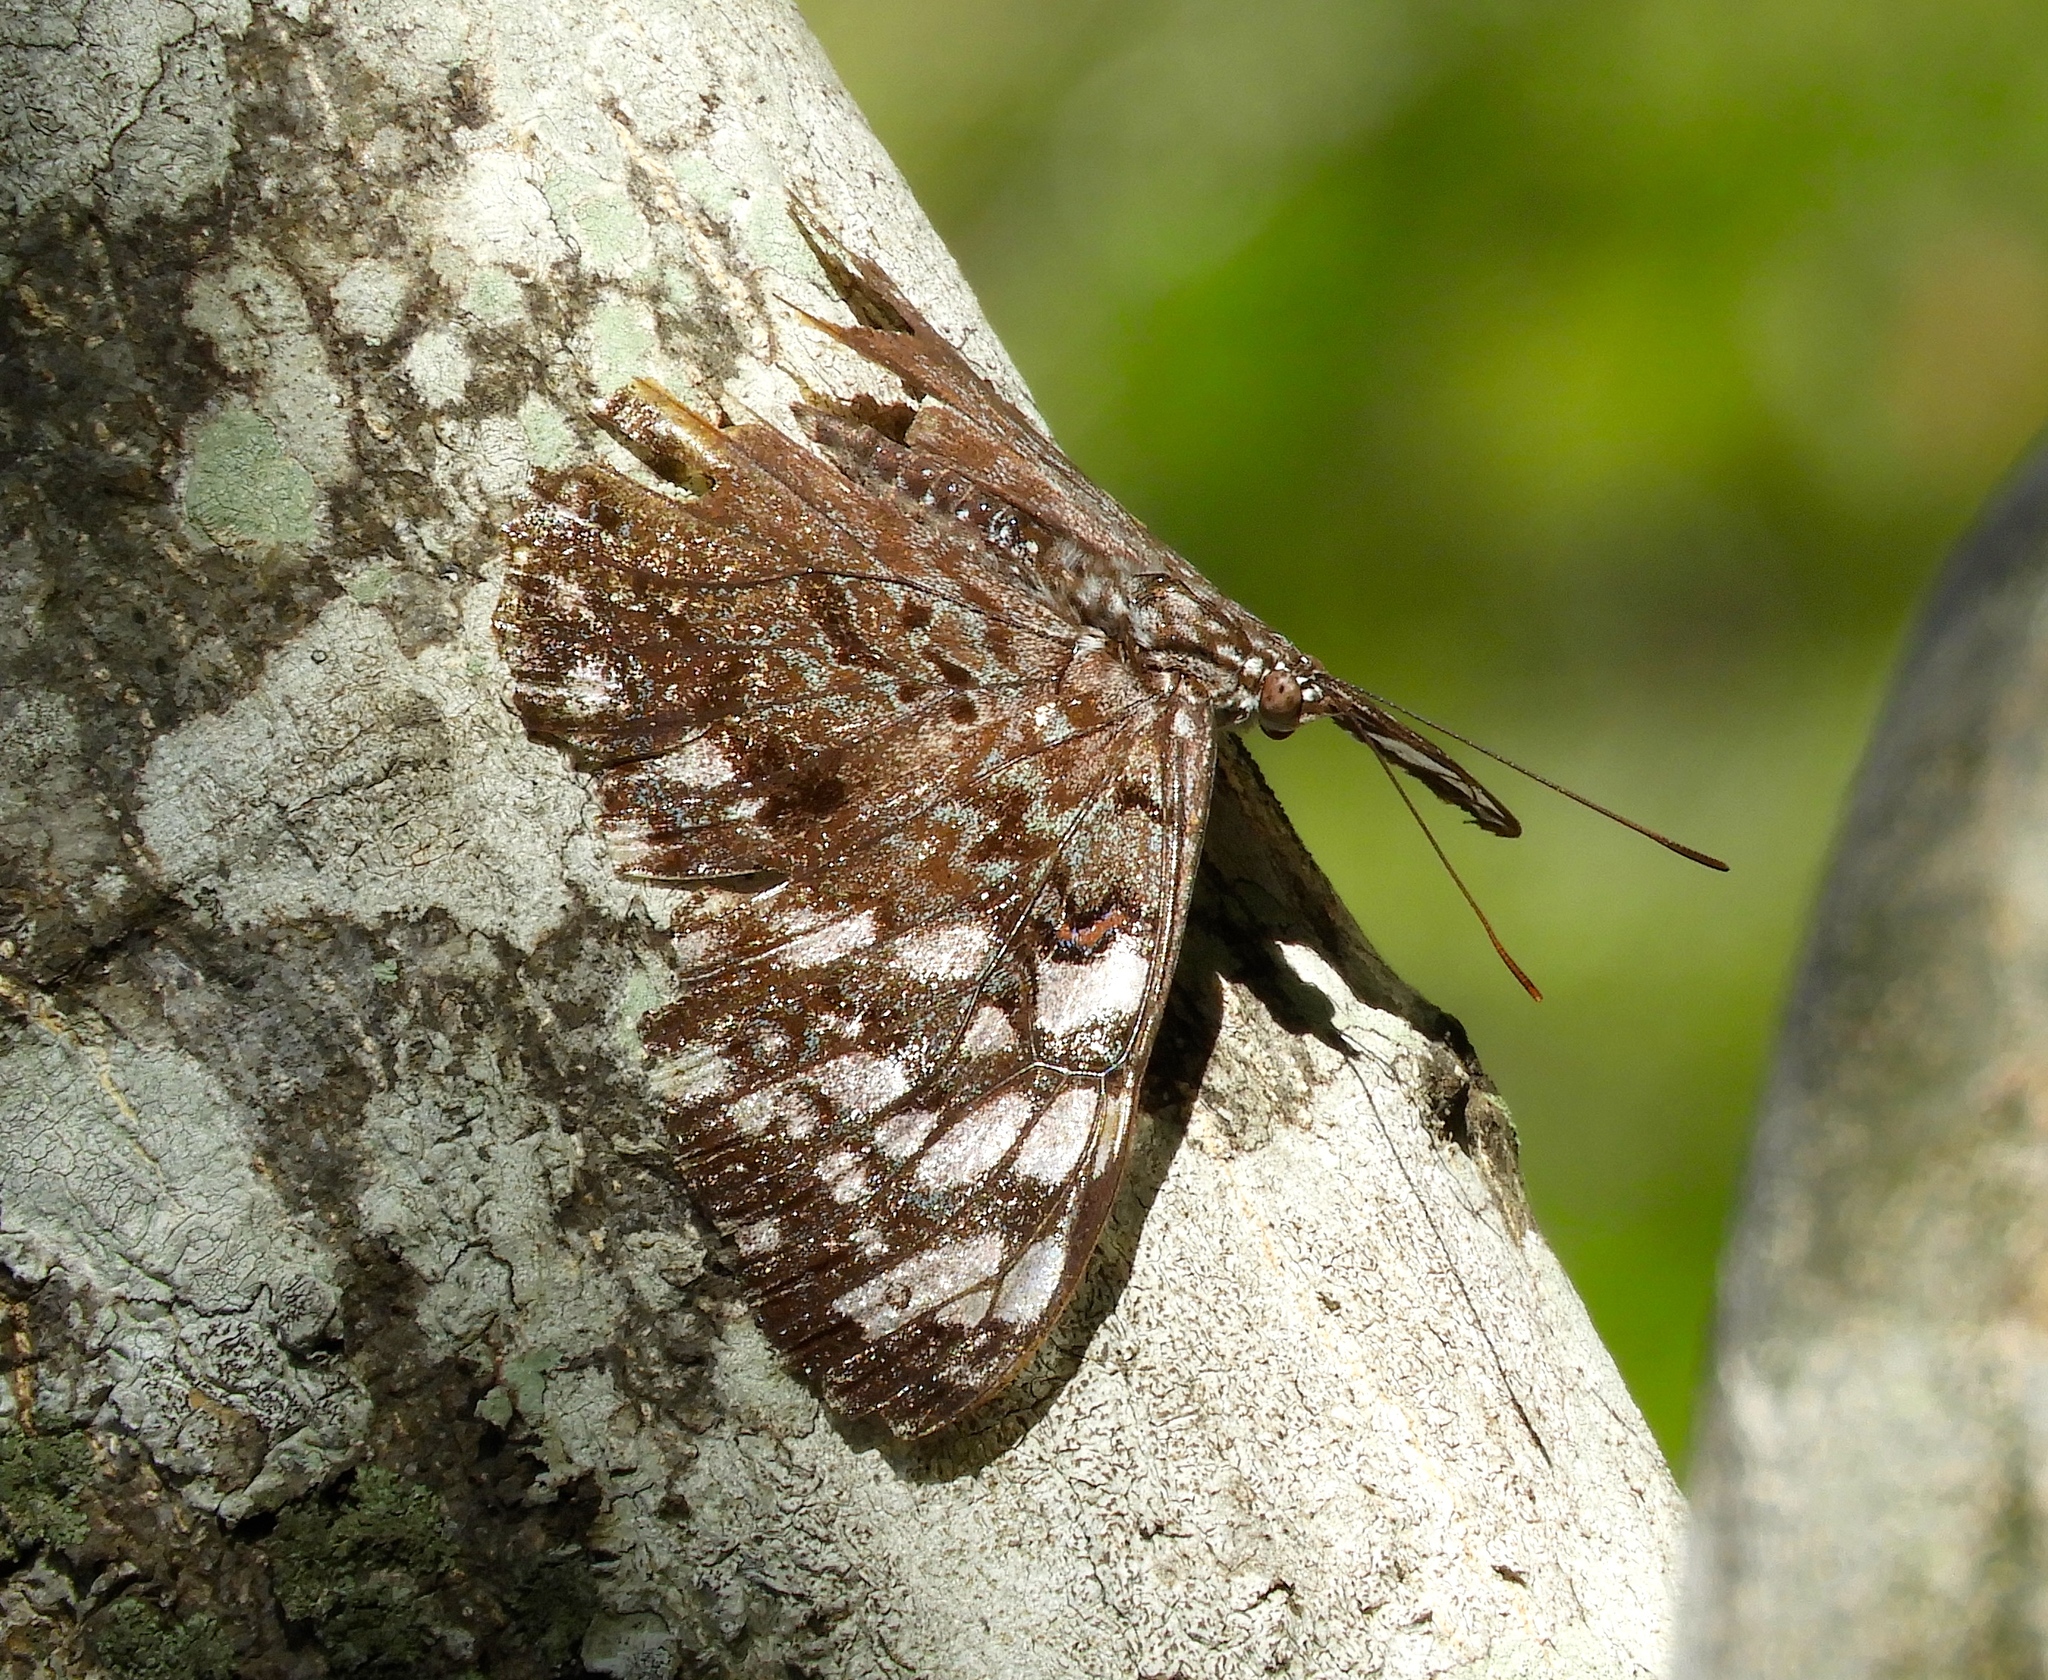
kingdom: Animalia
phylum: Arthropoda
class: Insecta
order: Lepidoptera
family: Nymphalidae
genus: Hamadryas
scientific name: Hamadryas
